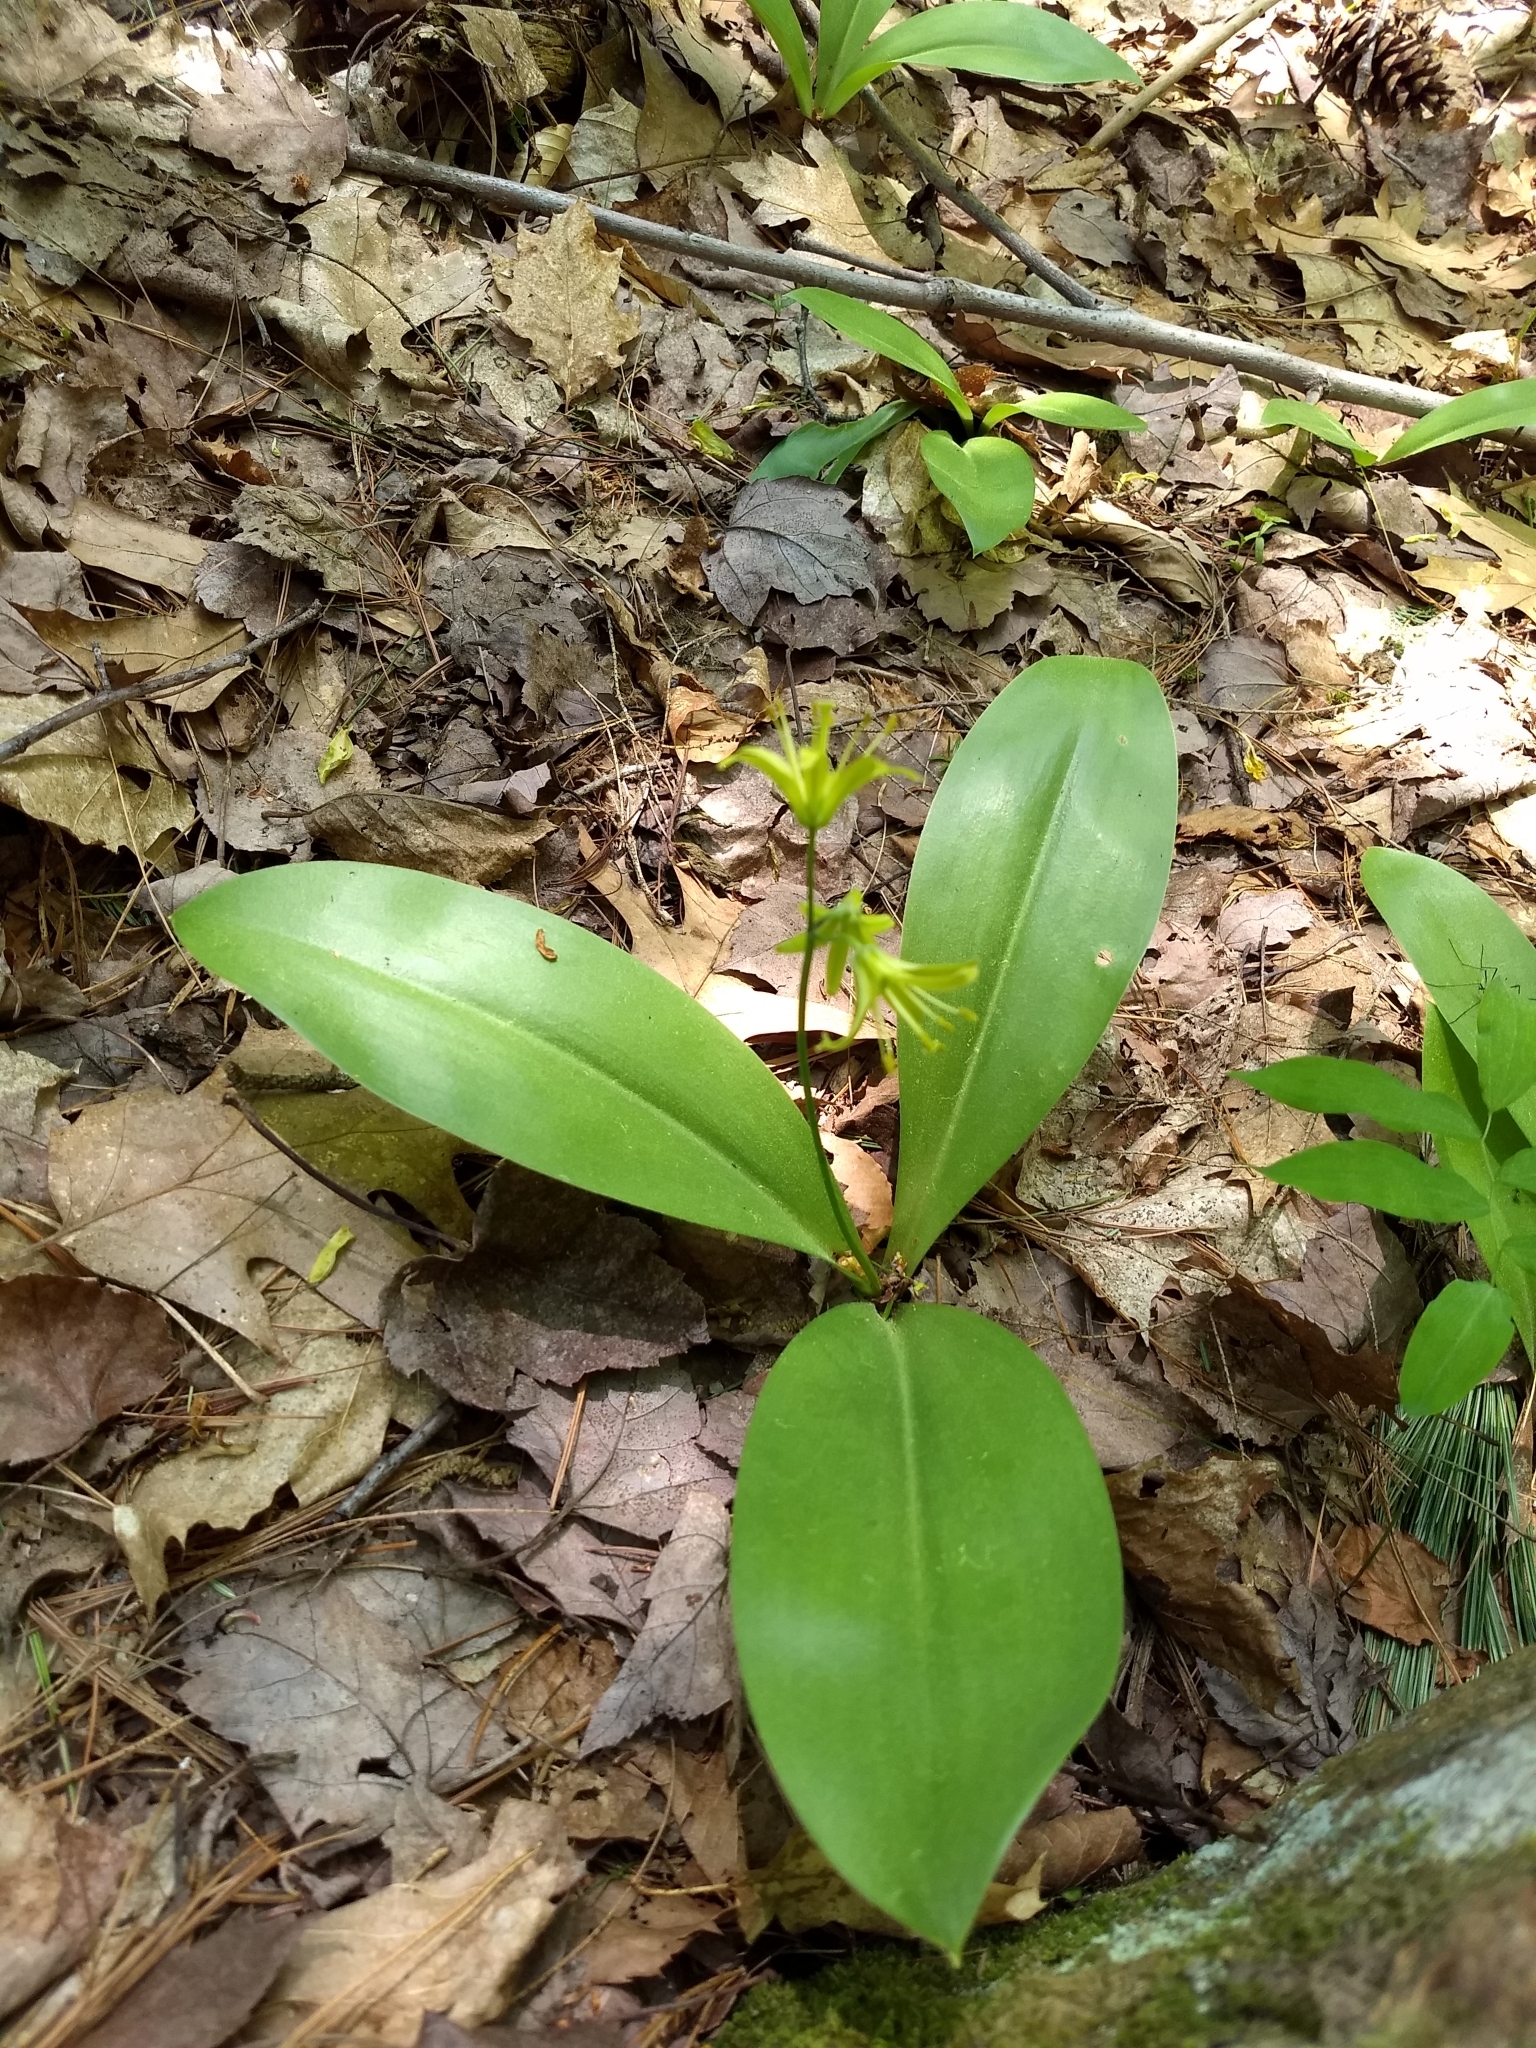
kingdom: Plantae
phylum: Tracheophyta
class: Liliopsida
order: Liliales
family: Liliaceae
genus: Clintonia
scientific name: Clintonia borealis
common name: Yellow clintonia
